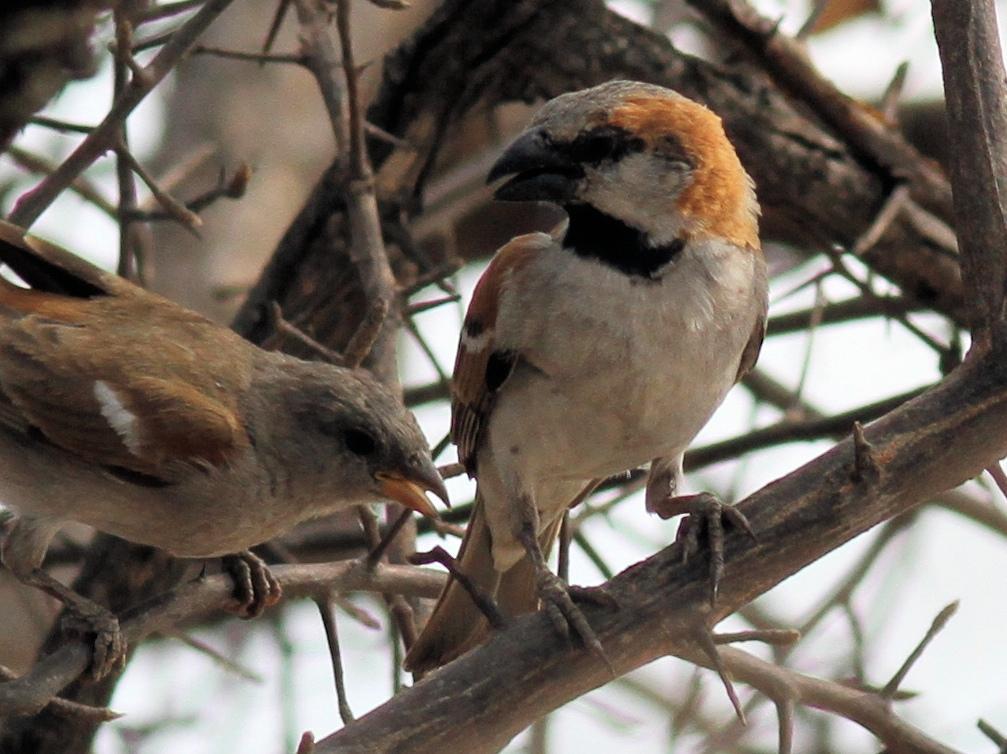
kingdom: Animalia
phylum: Chordata
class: Aves
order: Passeriformes
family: Passeridae
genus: Passer
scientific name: Passer motitensis
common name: Great sparrow
